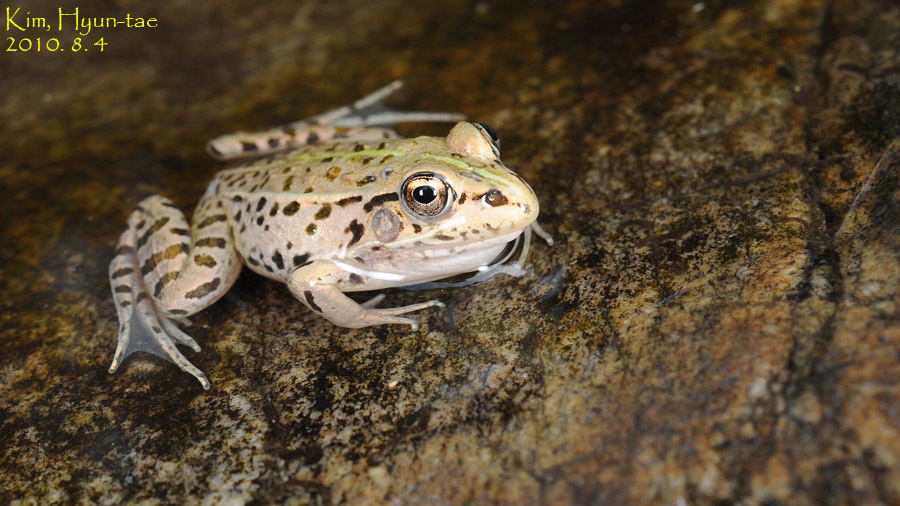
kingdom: Animalia
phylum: Chordata
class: Amphibia
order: Anura
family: Ranidae
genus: Pelophylax
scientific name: Pelophylax nigromaculatus
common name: Black-spotted pond frog
